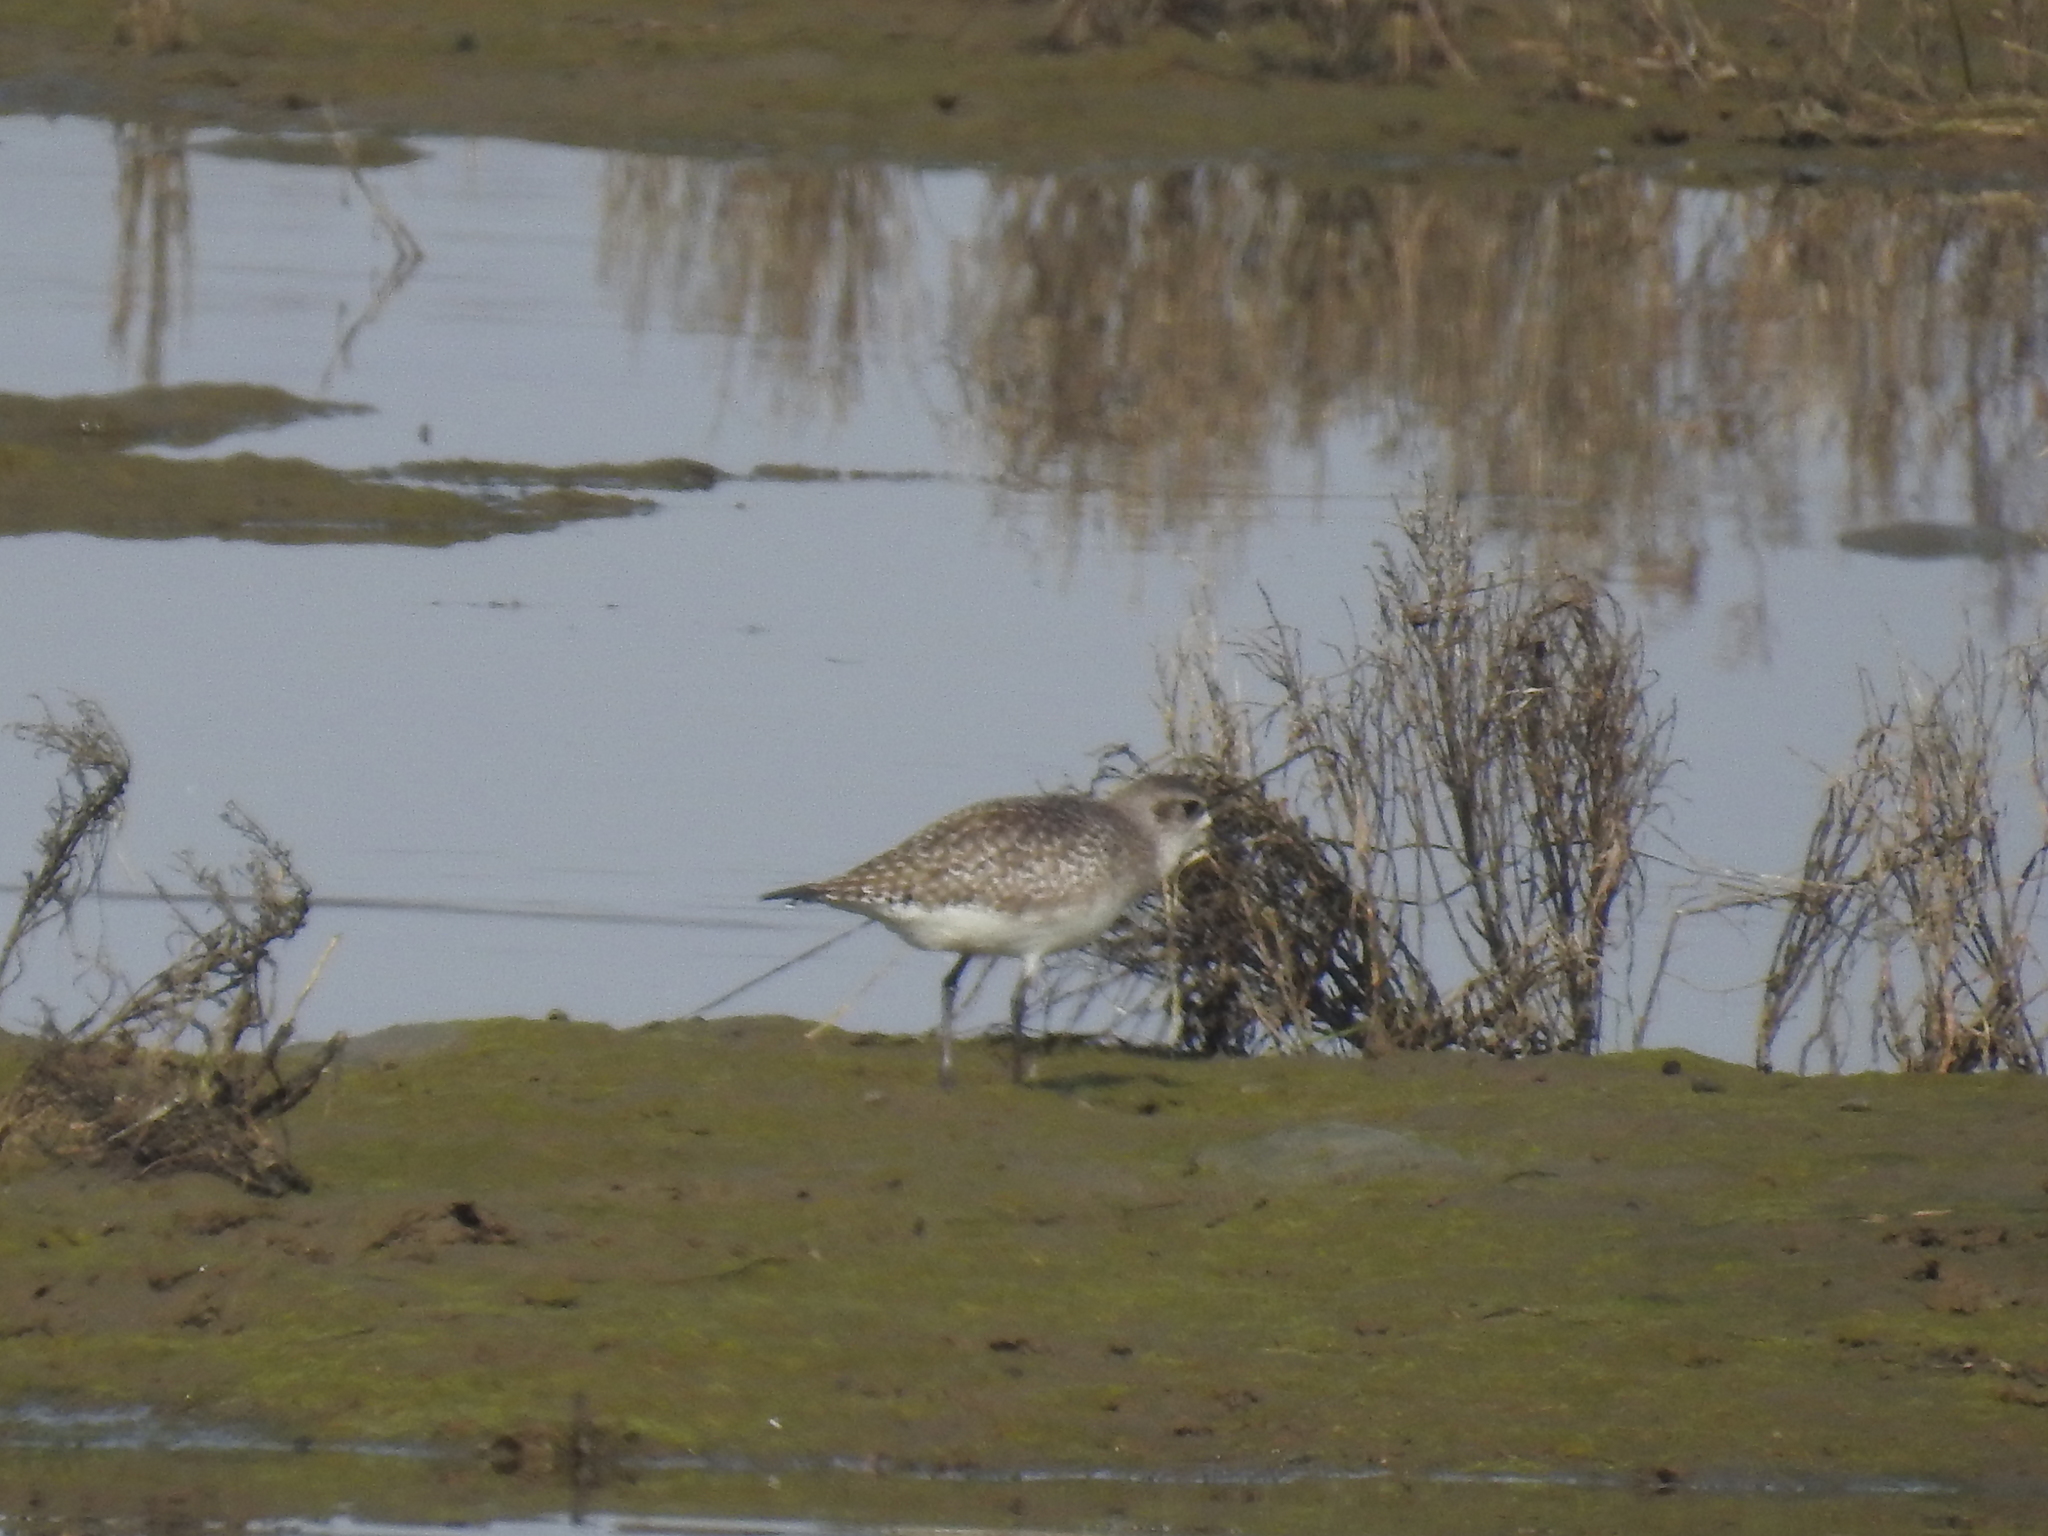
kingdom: Animalia
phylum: Chordata
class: Aves
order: Charadriiformes
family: Charadriidae
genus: Pluvialis
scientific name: Pluvialis squatarola
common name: Grey plover
